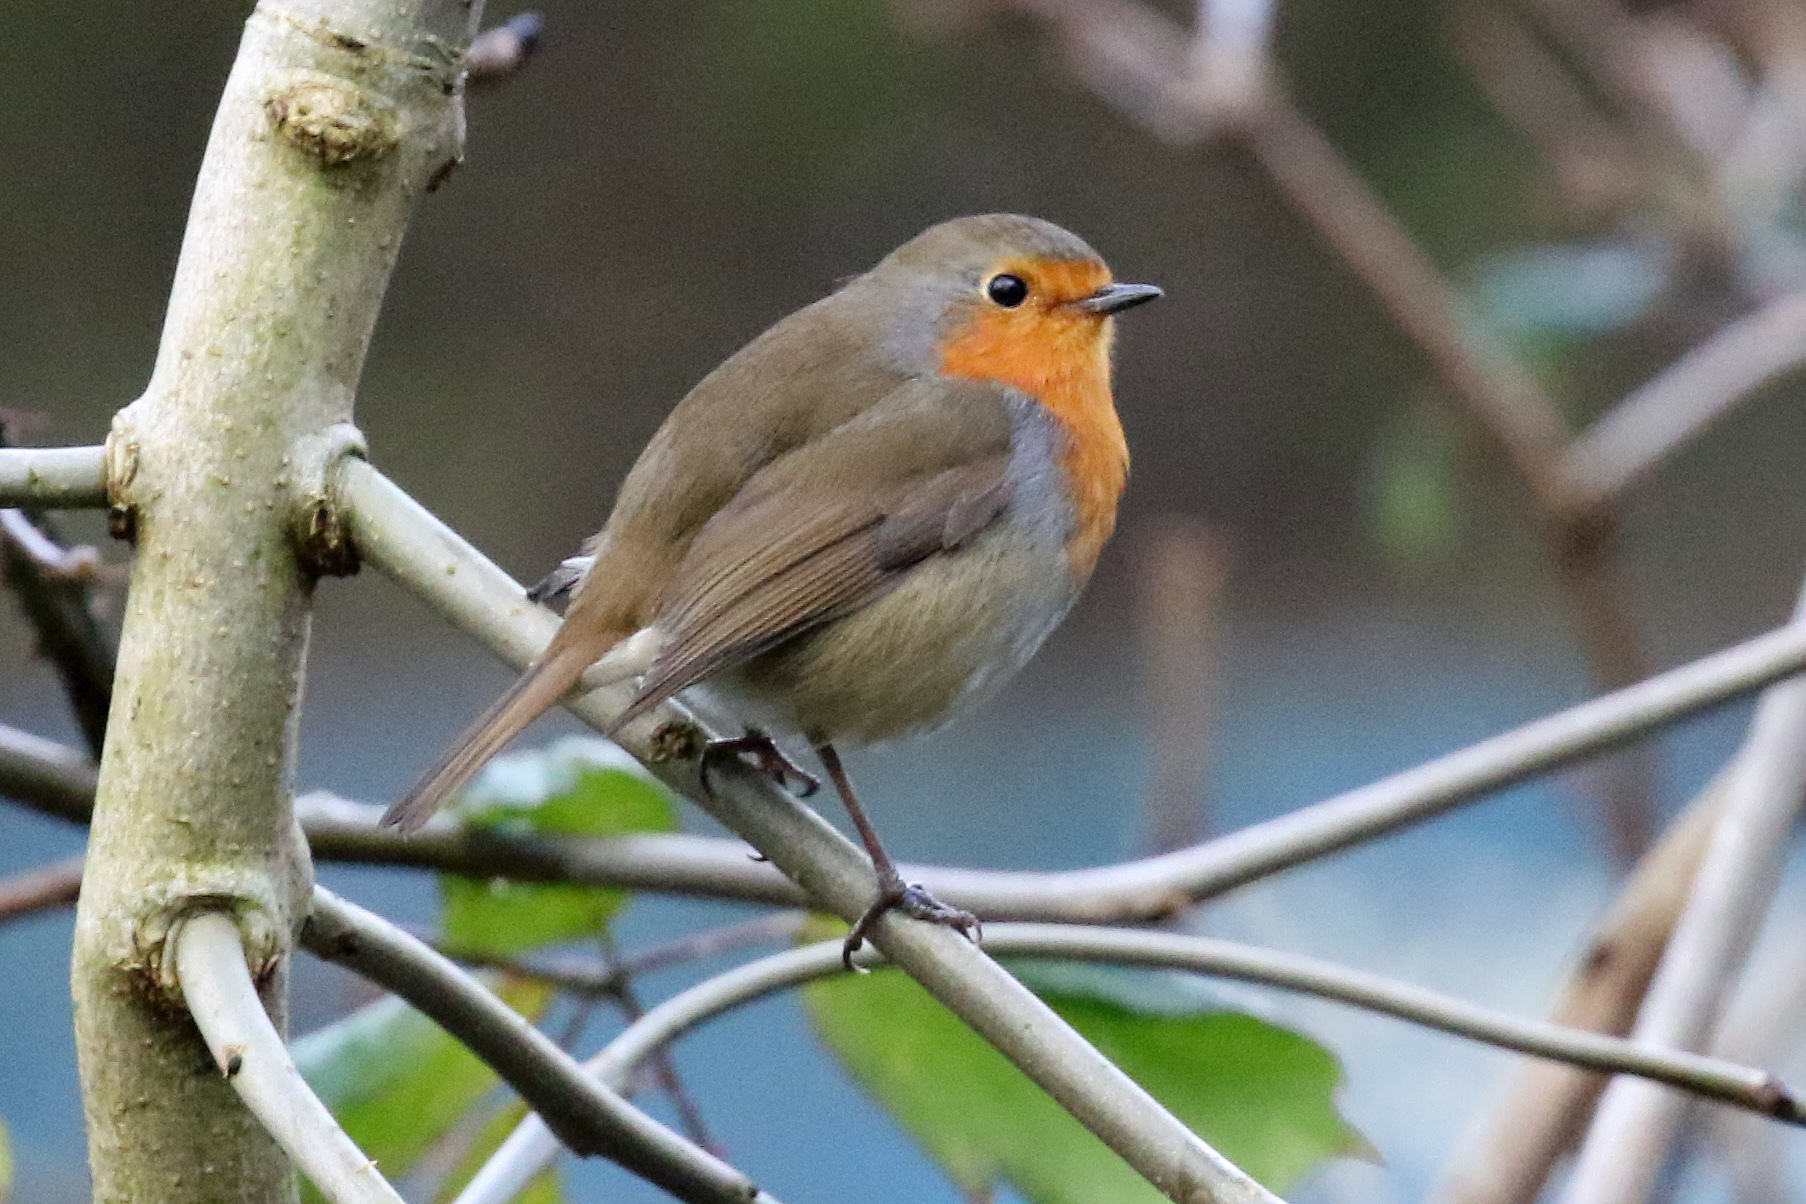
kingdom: Animalia
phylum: Chordata
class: Aves
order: Passeriformes
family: Muscicapidae
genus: Erithacus
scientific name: Erithacus rubecula
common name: European robin
